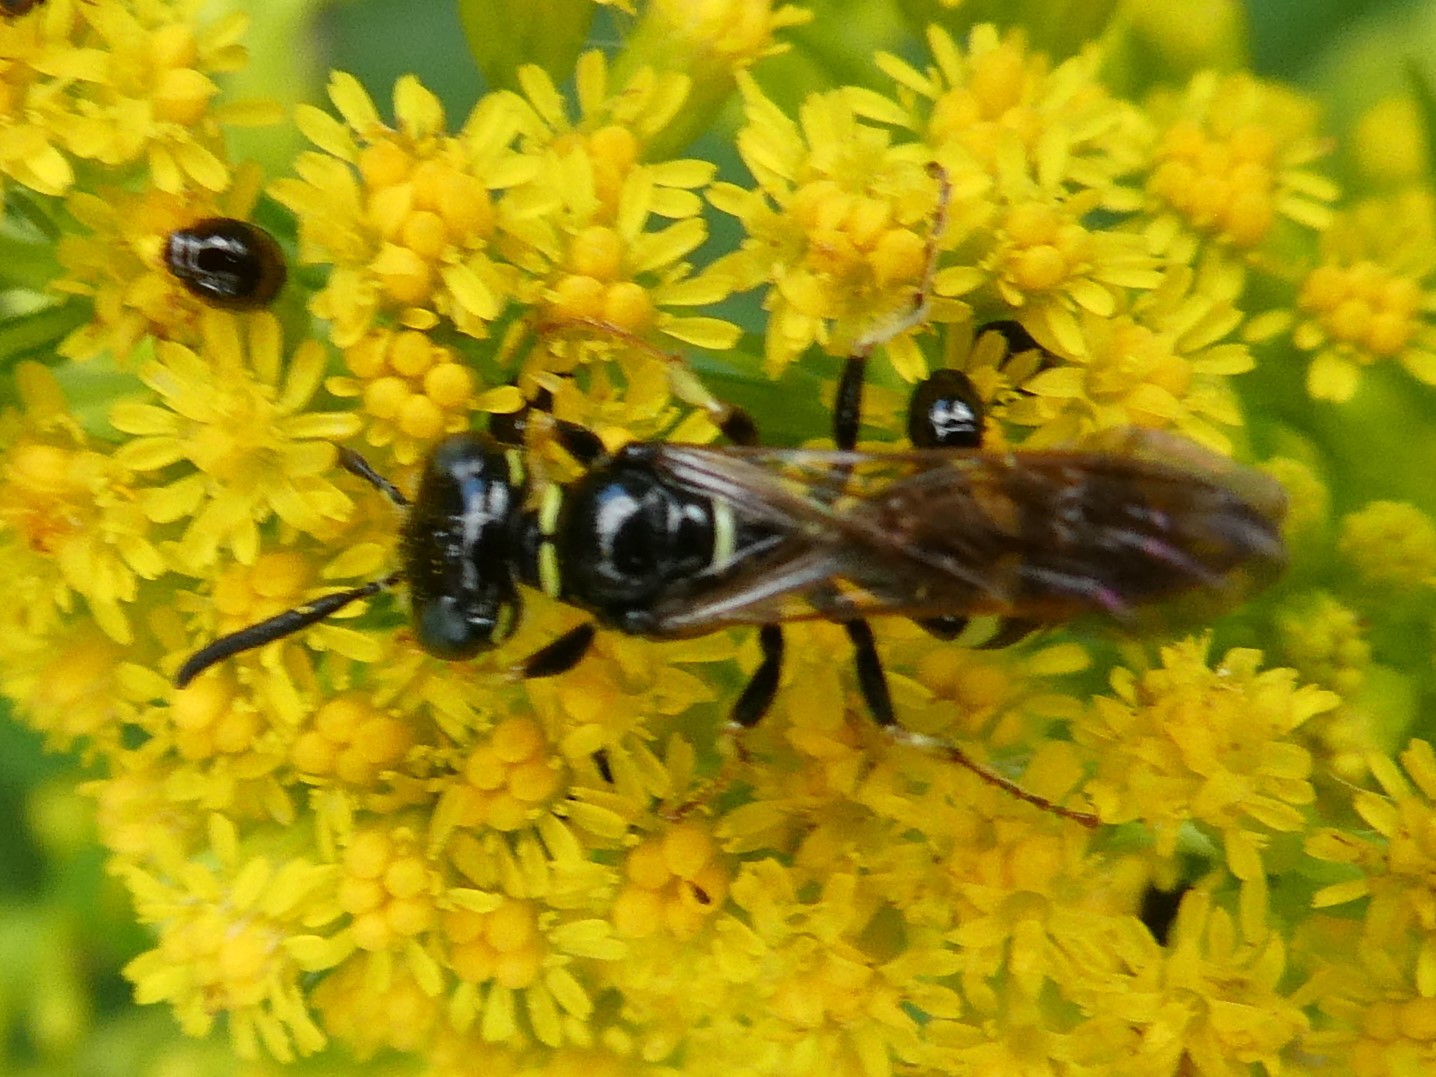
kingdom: Animalia
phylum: Arthropoda
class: Insecta
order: Hymenoptera
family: Crabronidae
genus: Philanthus
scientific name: Philanthus bilunatus
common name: Two moons beewolf
